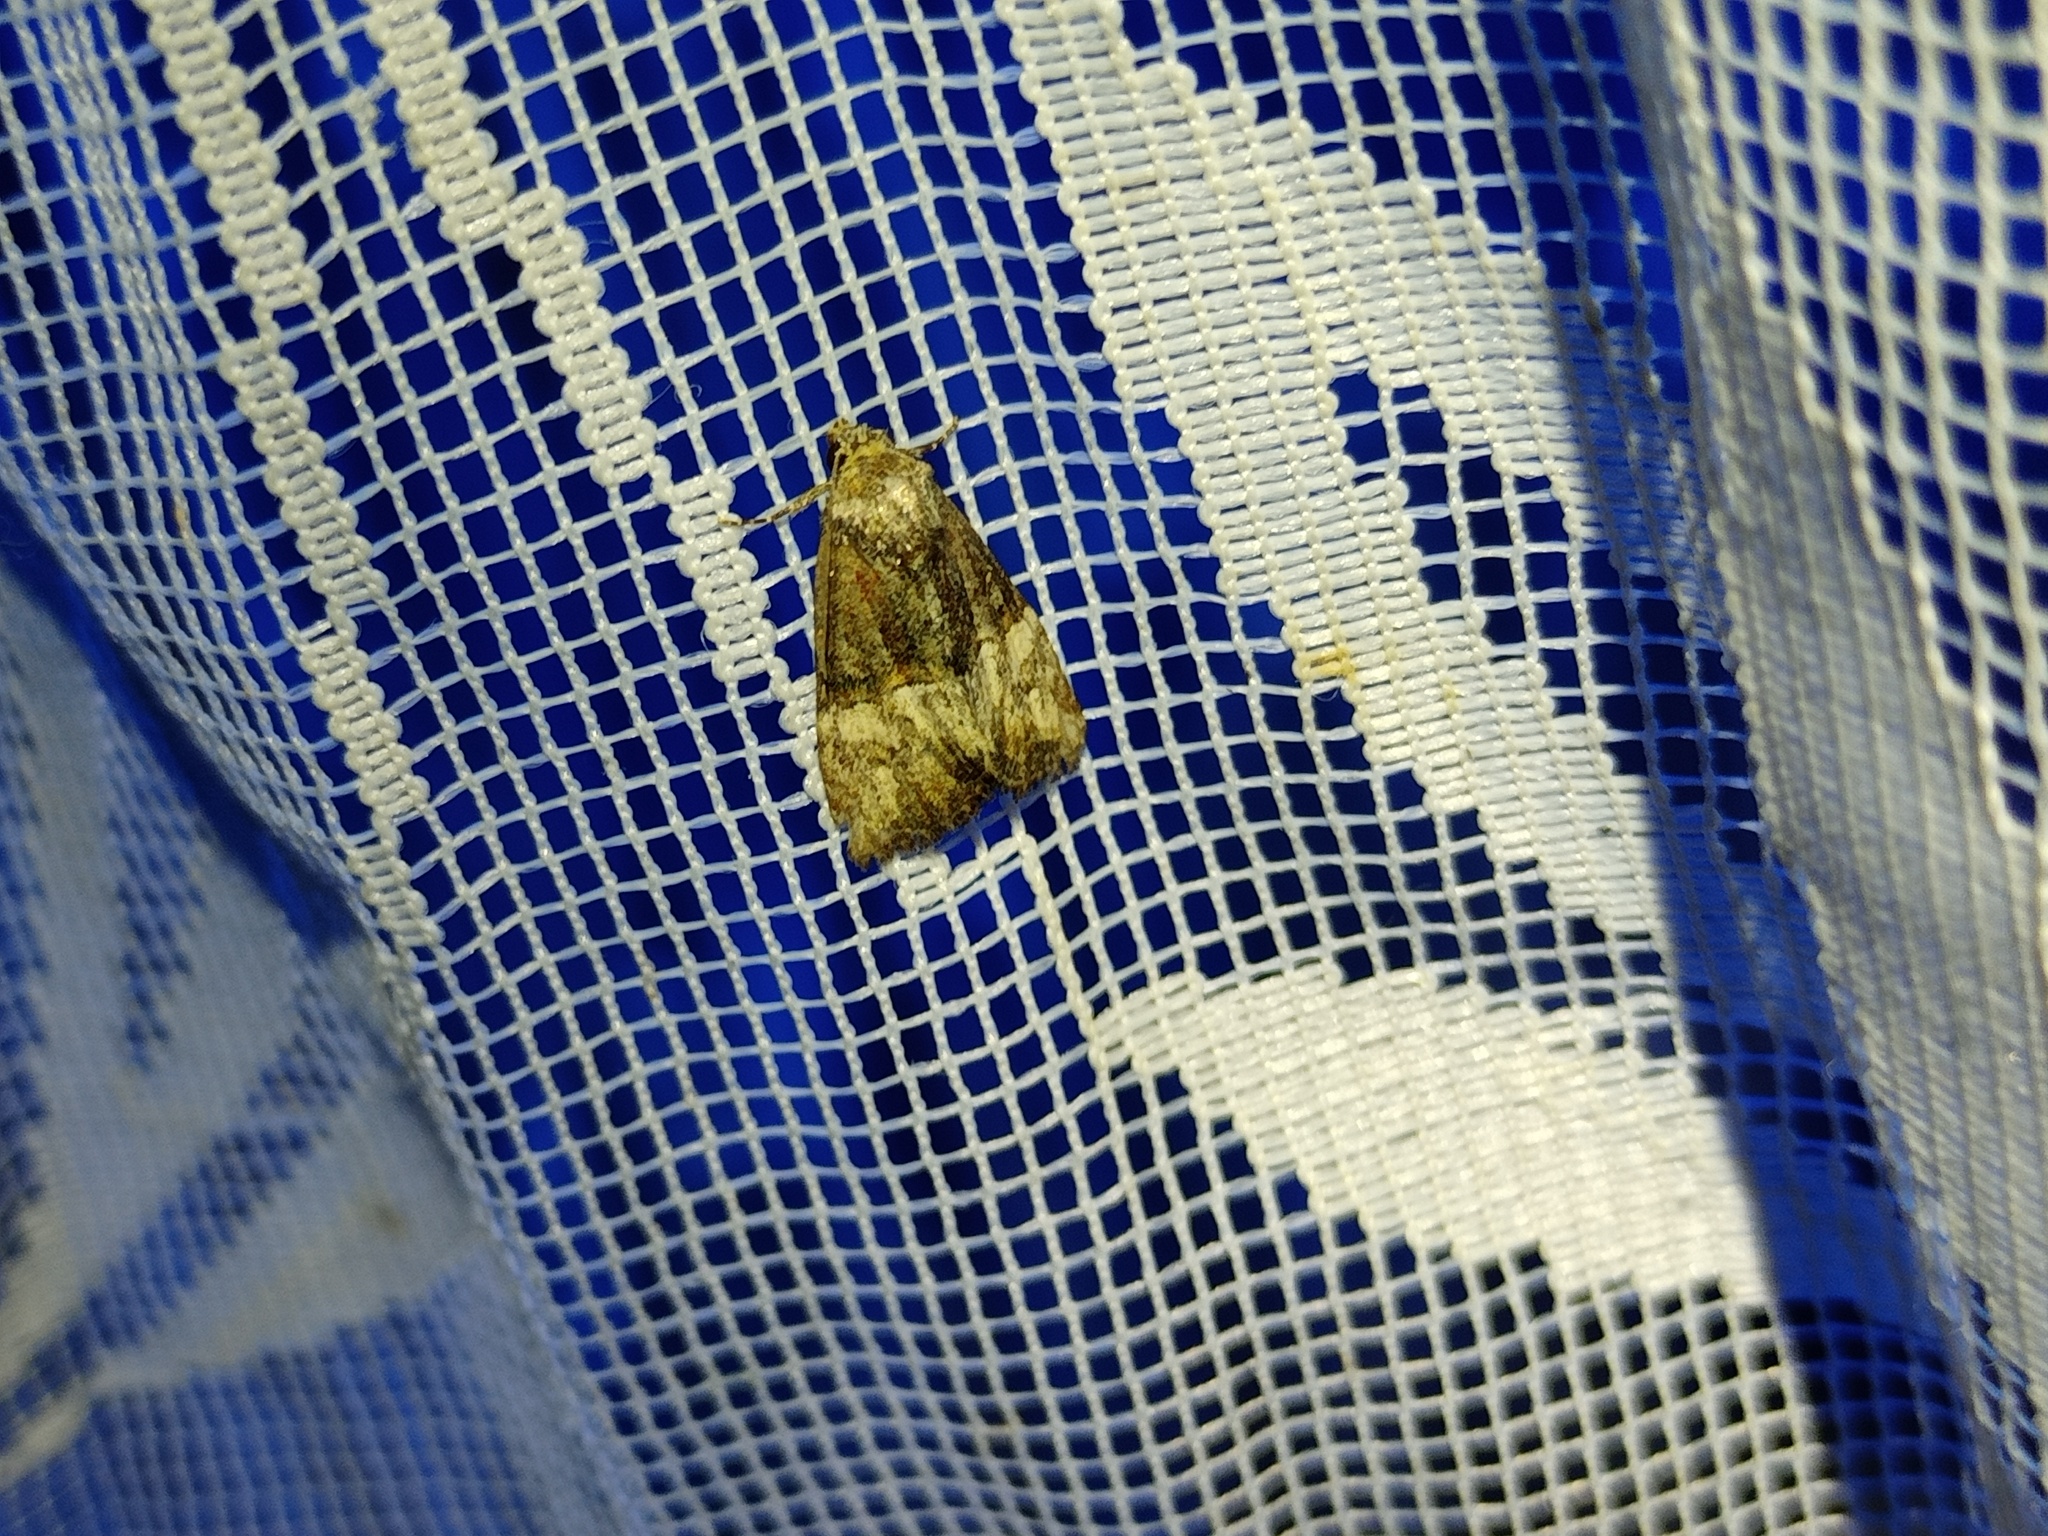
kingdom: Animalia
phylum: Arthropoda
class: Insecta
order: Lepidoptera
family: Noctuidae
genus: Mesoligia
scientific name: Mesoligia furuncula
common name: Cloaked minor
